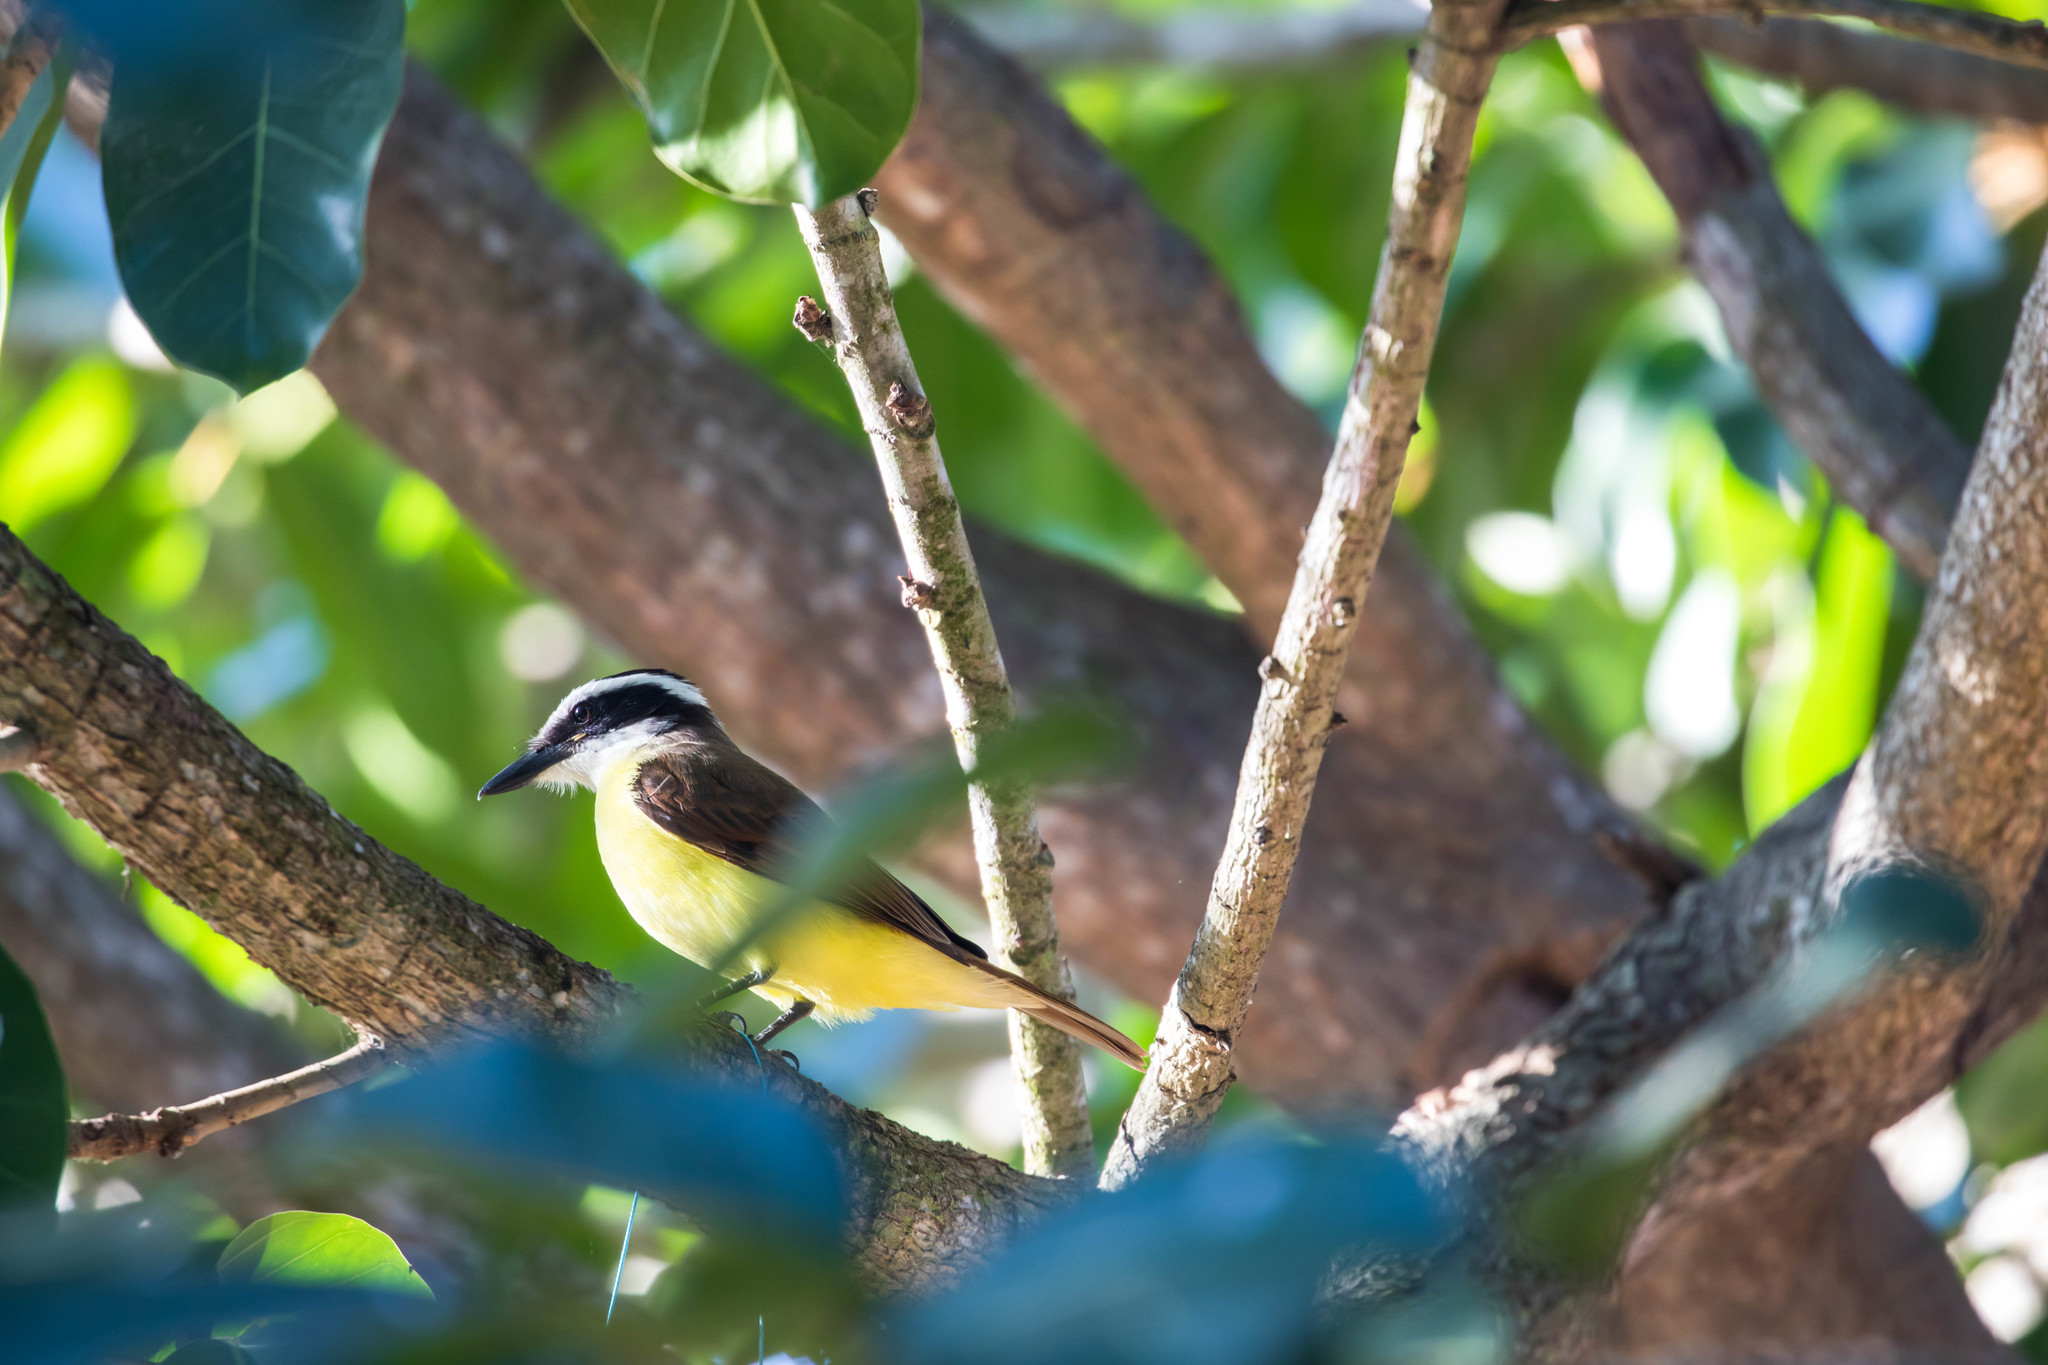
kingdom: Animalia
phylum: Chordata
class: Aves
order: Passeriformes
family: Tyrannidae
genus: Pitangus
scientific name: Pitangus sulphuratus
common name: Great kiskadee
